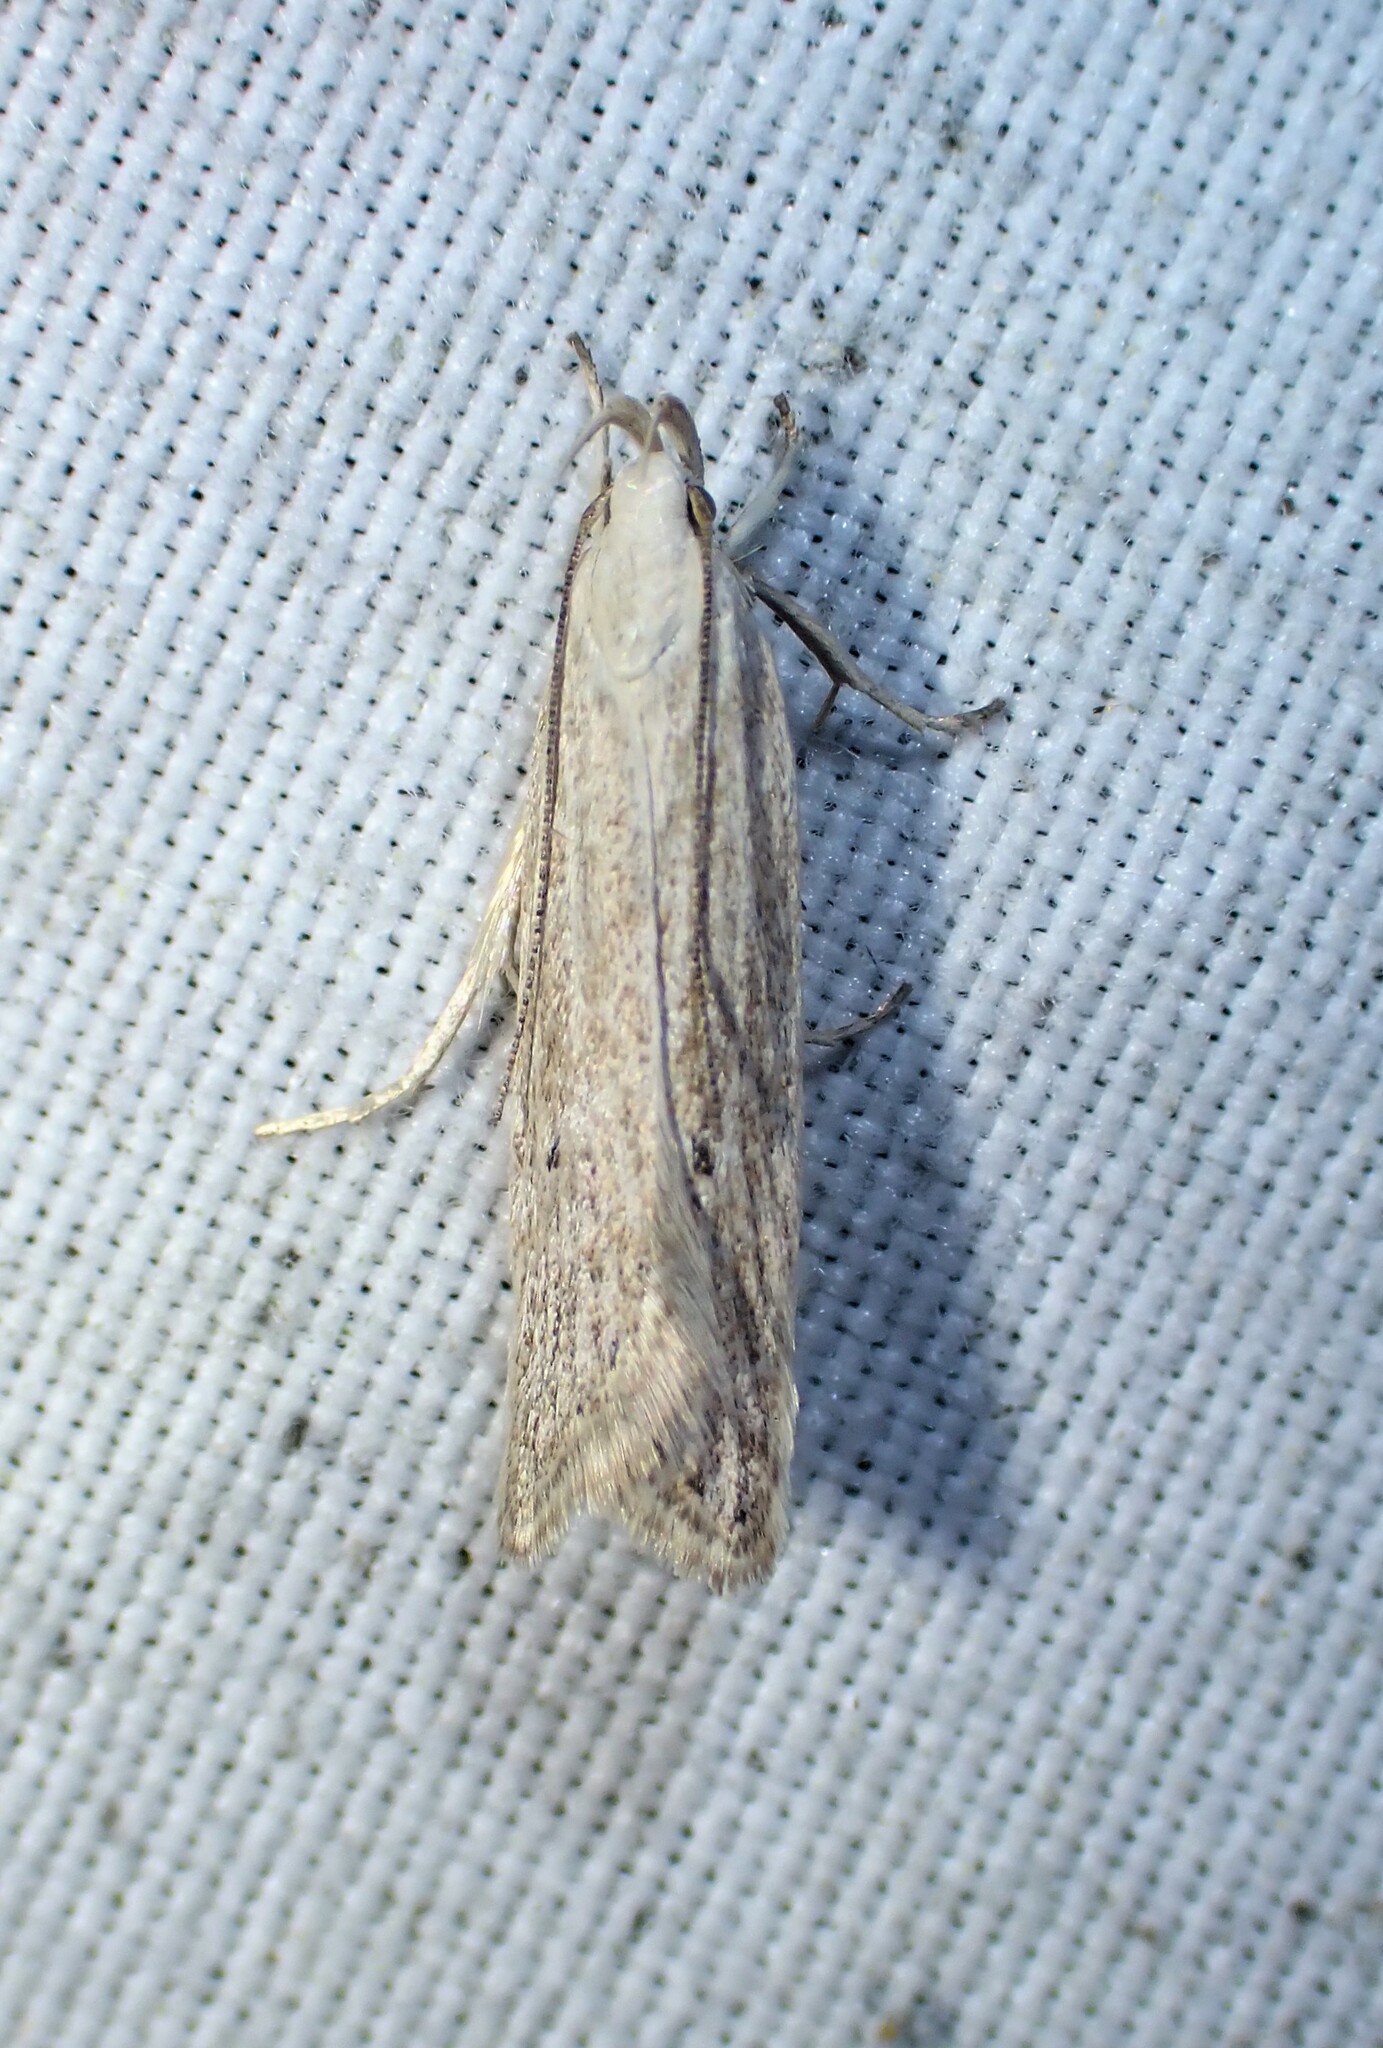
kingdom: Animalia
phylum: Arthropoda
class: Insecta
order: Lepidoptera
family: Gelechiidae
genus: Helcystogramma
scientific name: Helcystogramma fernaldella
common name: Fernald's helcystogramma moth
